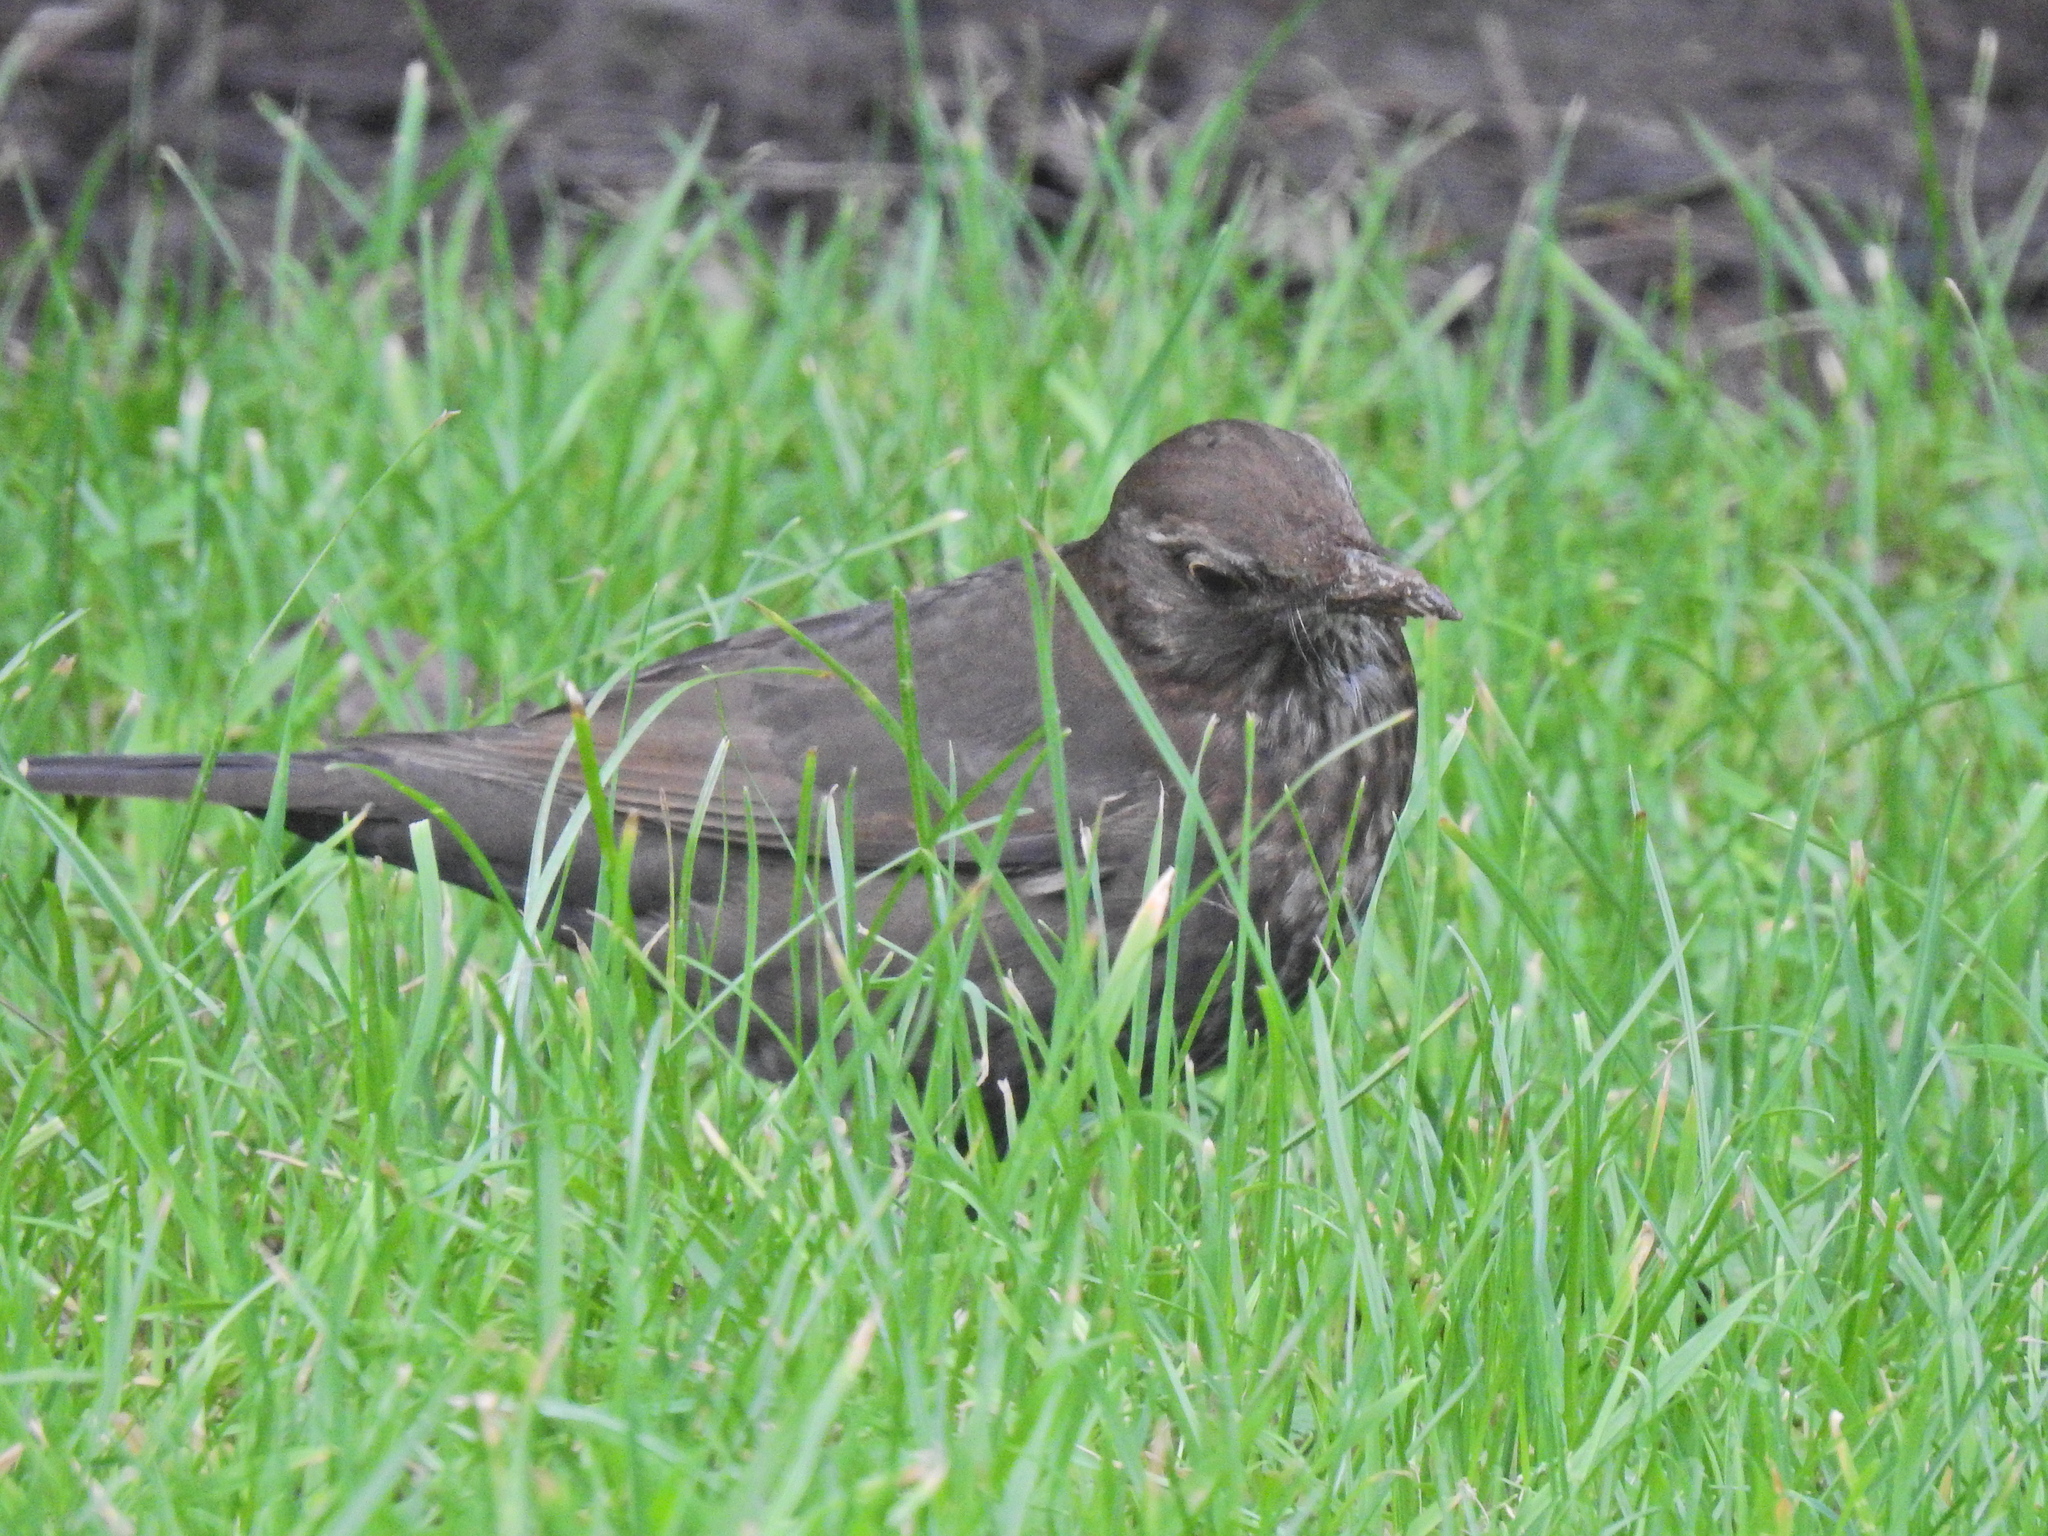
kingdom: Animalia
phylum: Chordata
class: Aves
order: Passeriformes
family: Turdidae
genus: Turdus
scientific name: Turdus merula
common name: Common blackbird
